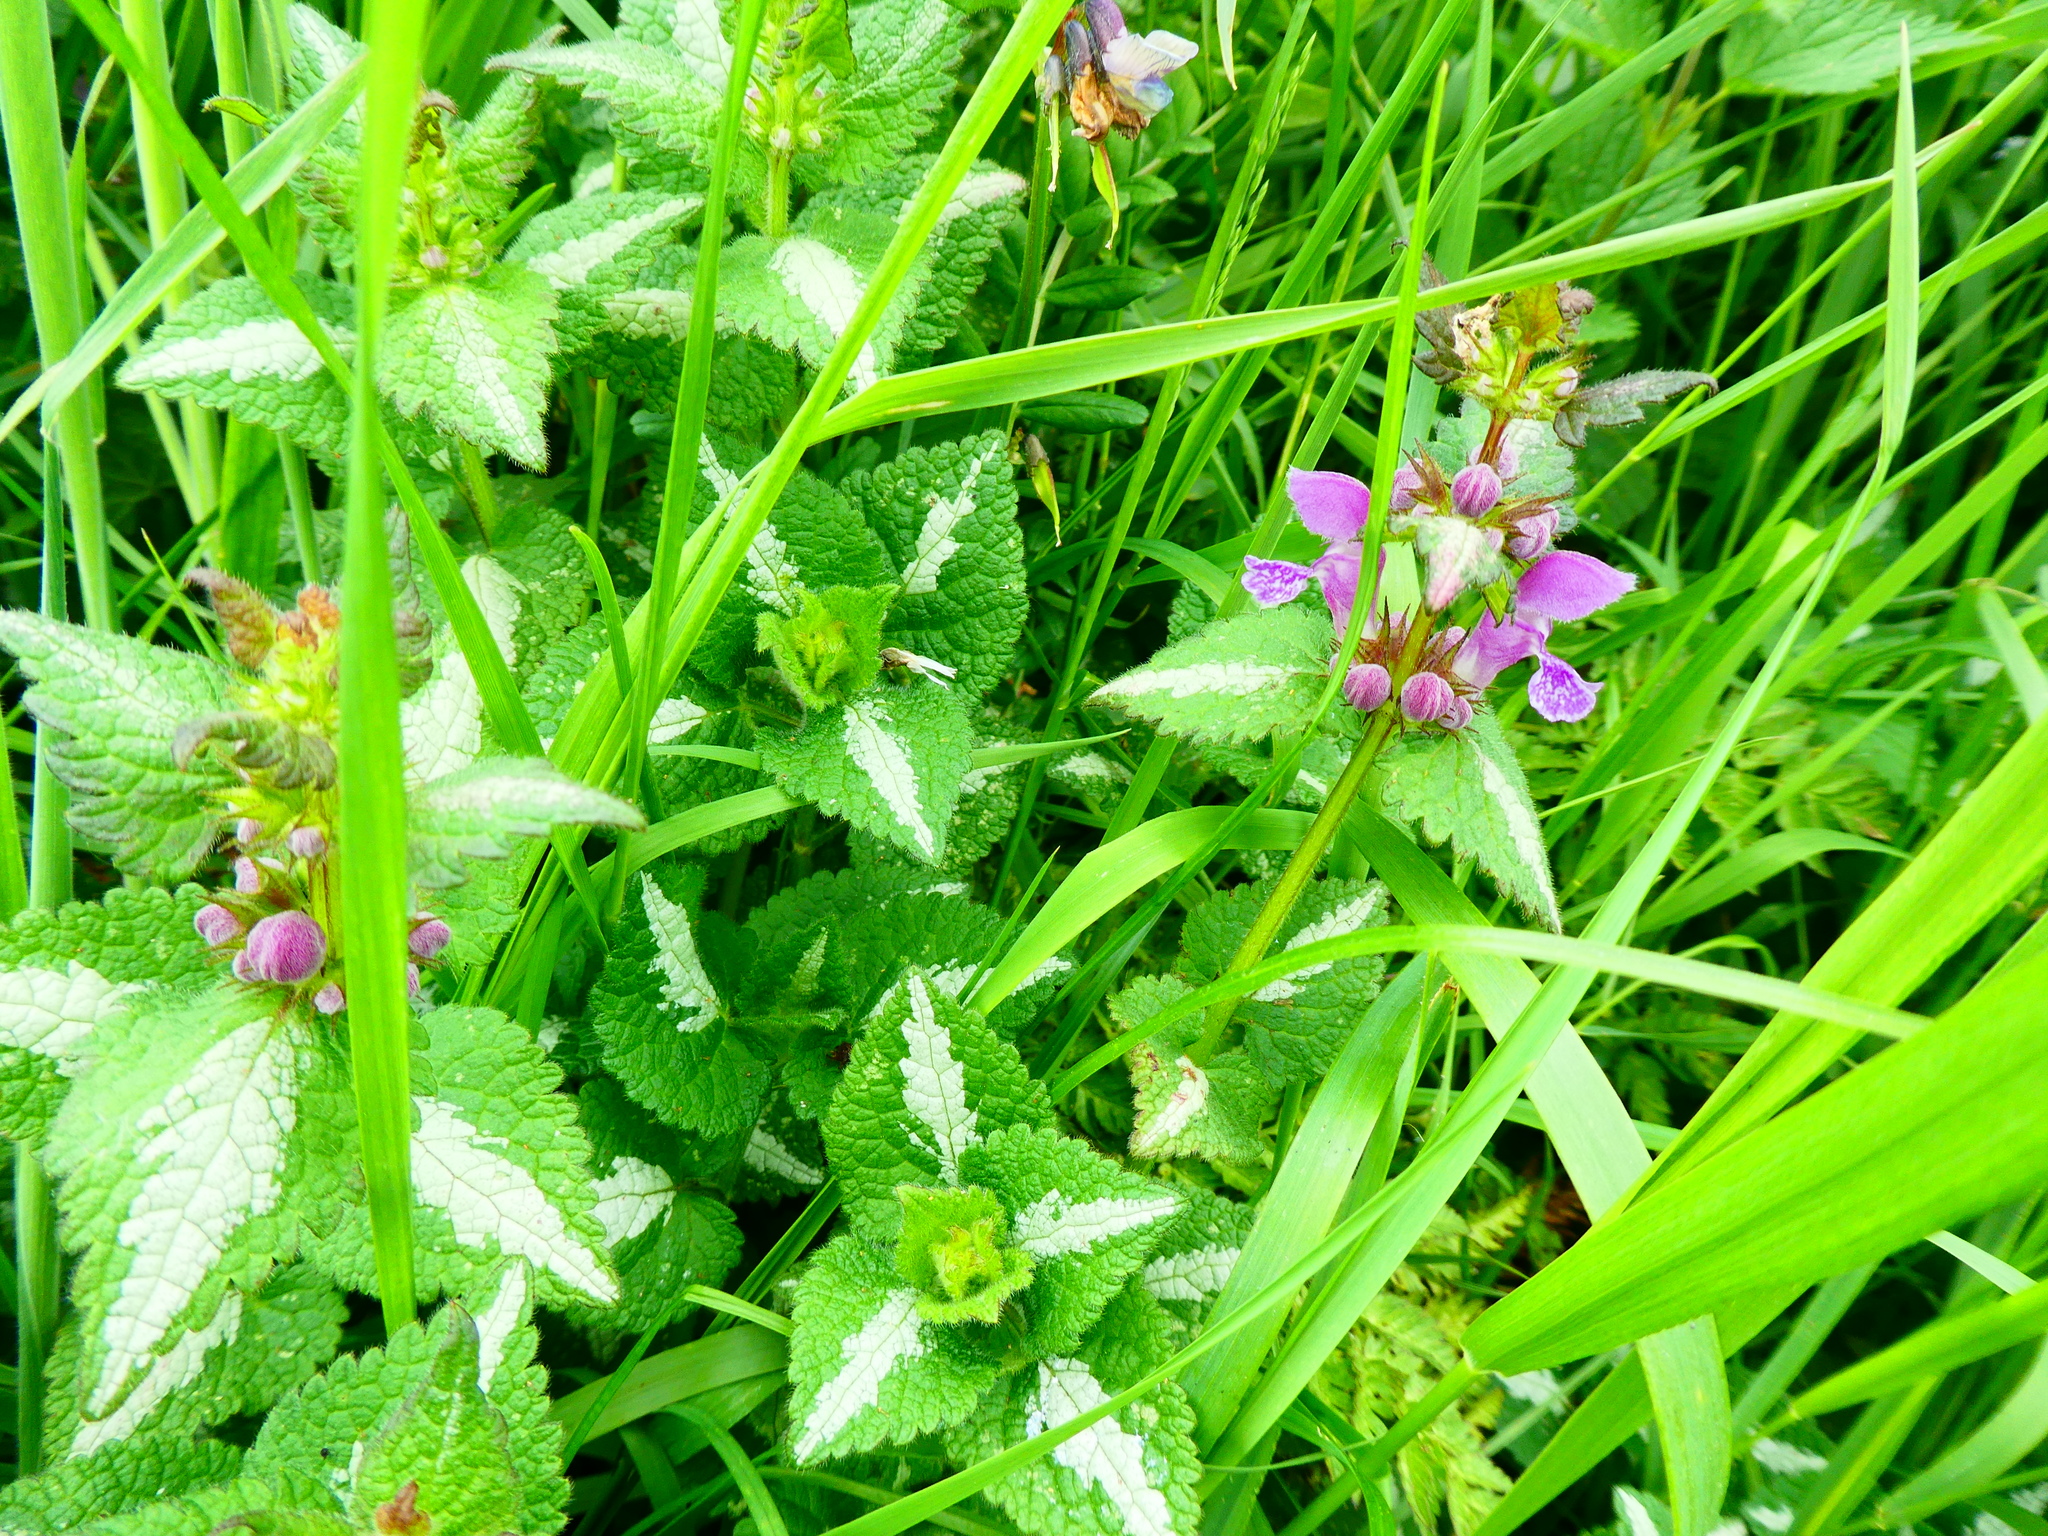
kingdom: Plantae
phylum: Tracheophyta
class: Magnoliopsida
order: Lamiales
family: Lamiaceae
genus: Lamium
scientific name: Lamium maculatum
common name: Spotted dead-nettle
